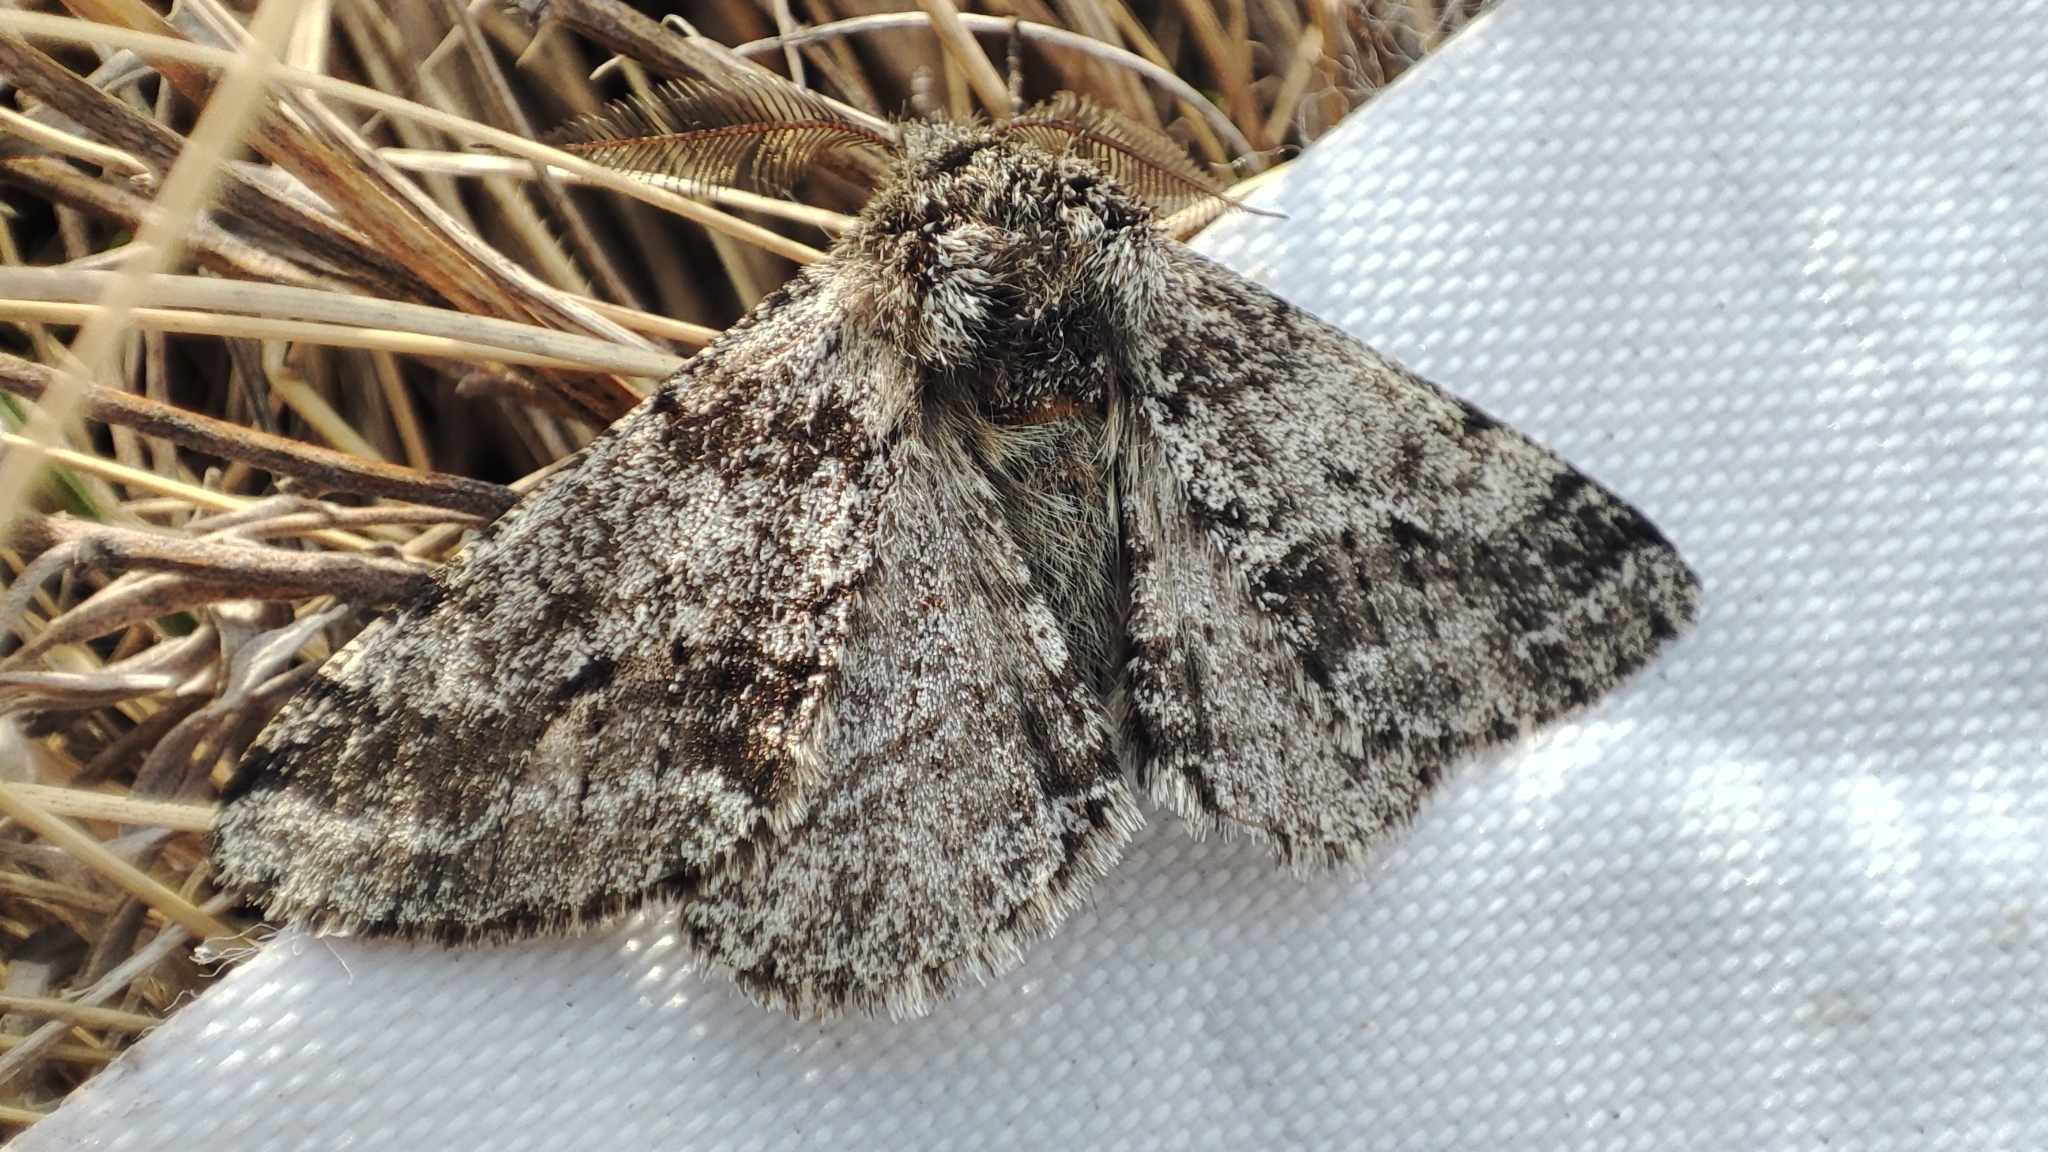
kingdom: Animalia
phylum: Arthropoda
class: Insecta
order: Lepidoptera
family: Geometridae
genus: Lycia
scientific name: Lycia hirtaria
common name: Brindled beauty
